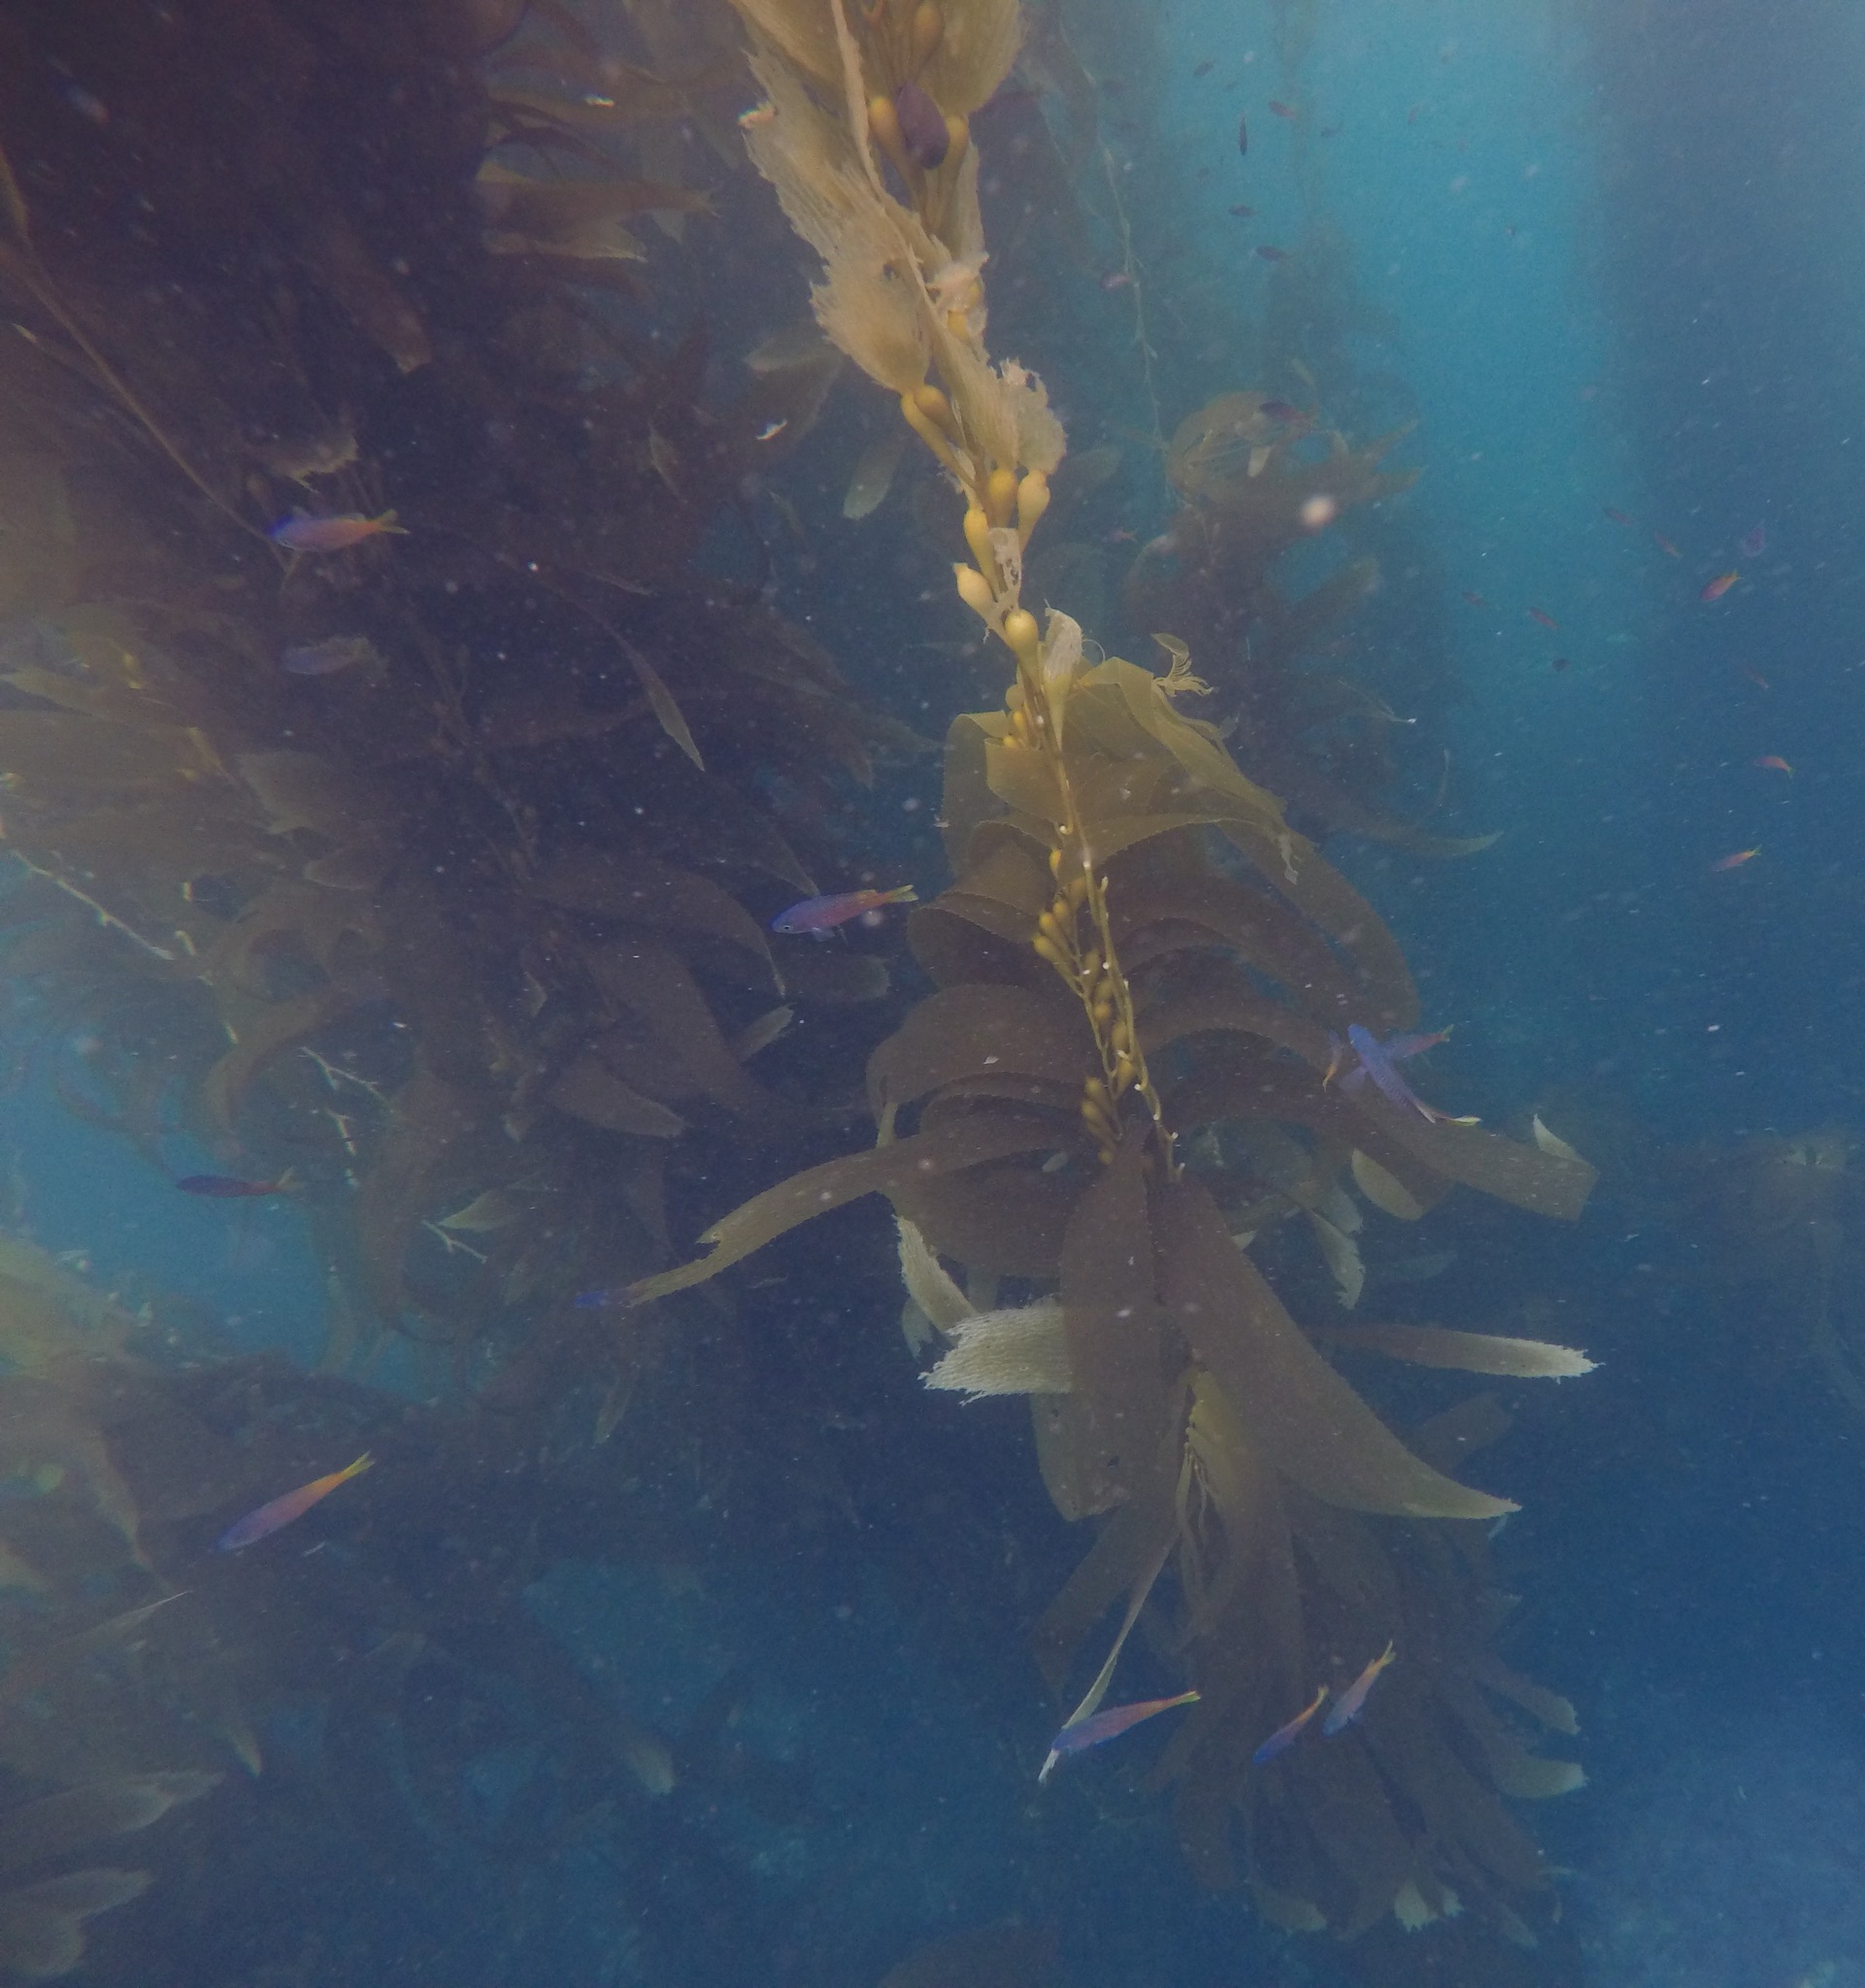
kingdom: Animalia
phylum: Chordata
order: Perciformes
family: Pomacentridae
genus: Chromis
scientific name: Chromis punctipinnis
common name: Blacksmith
